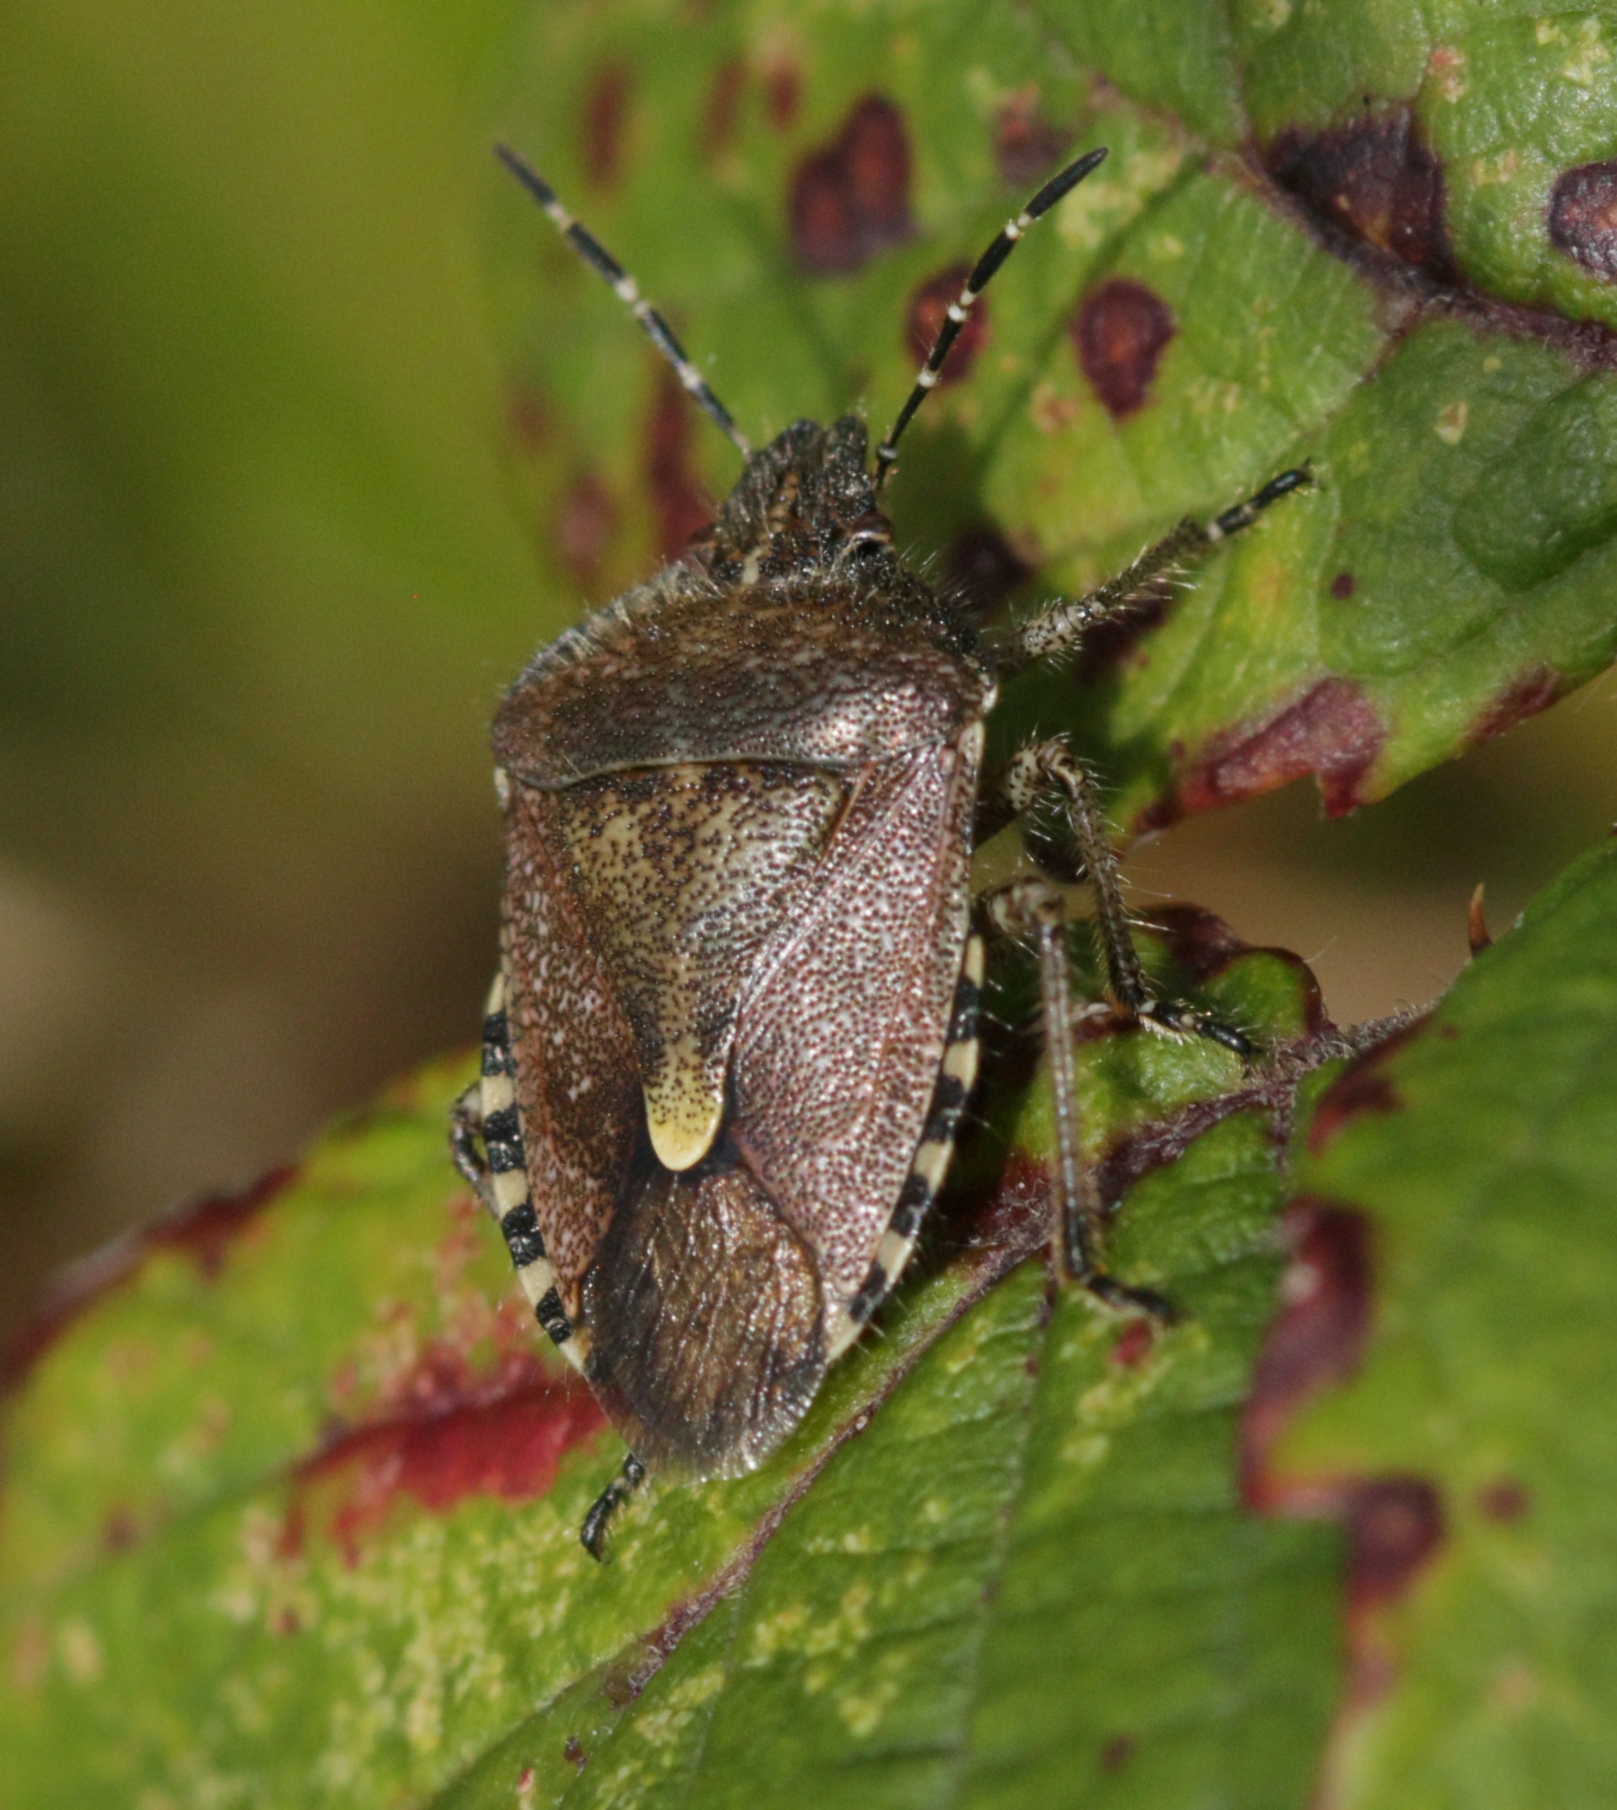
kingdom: Animalia
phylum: Arthropoda
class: Insecta
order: Hemiptera
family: Pentatomidae
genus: Dolycoris
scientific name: Dolycoris baccarum
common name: Sloe bug
